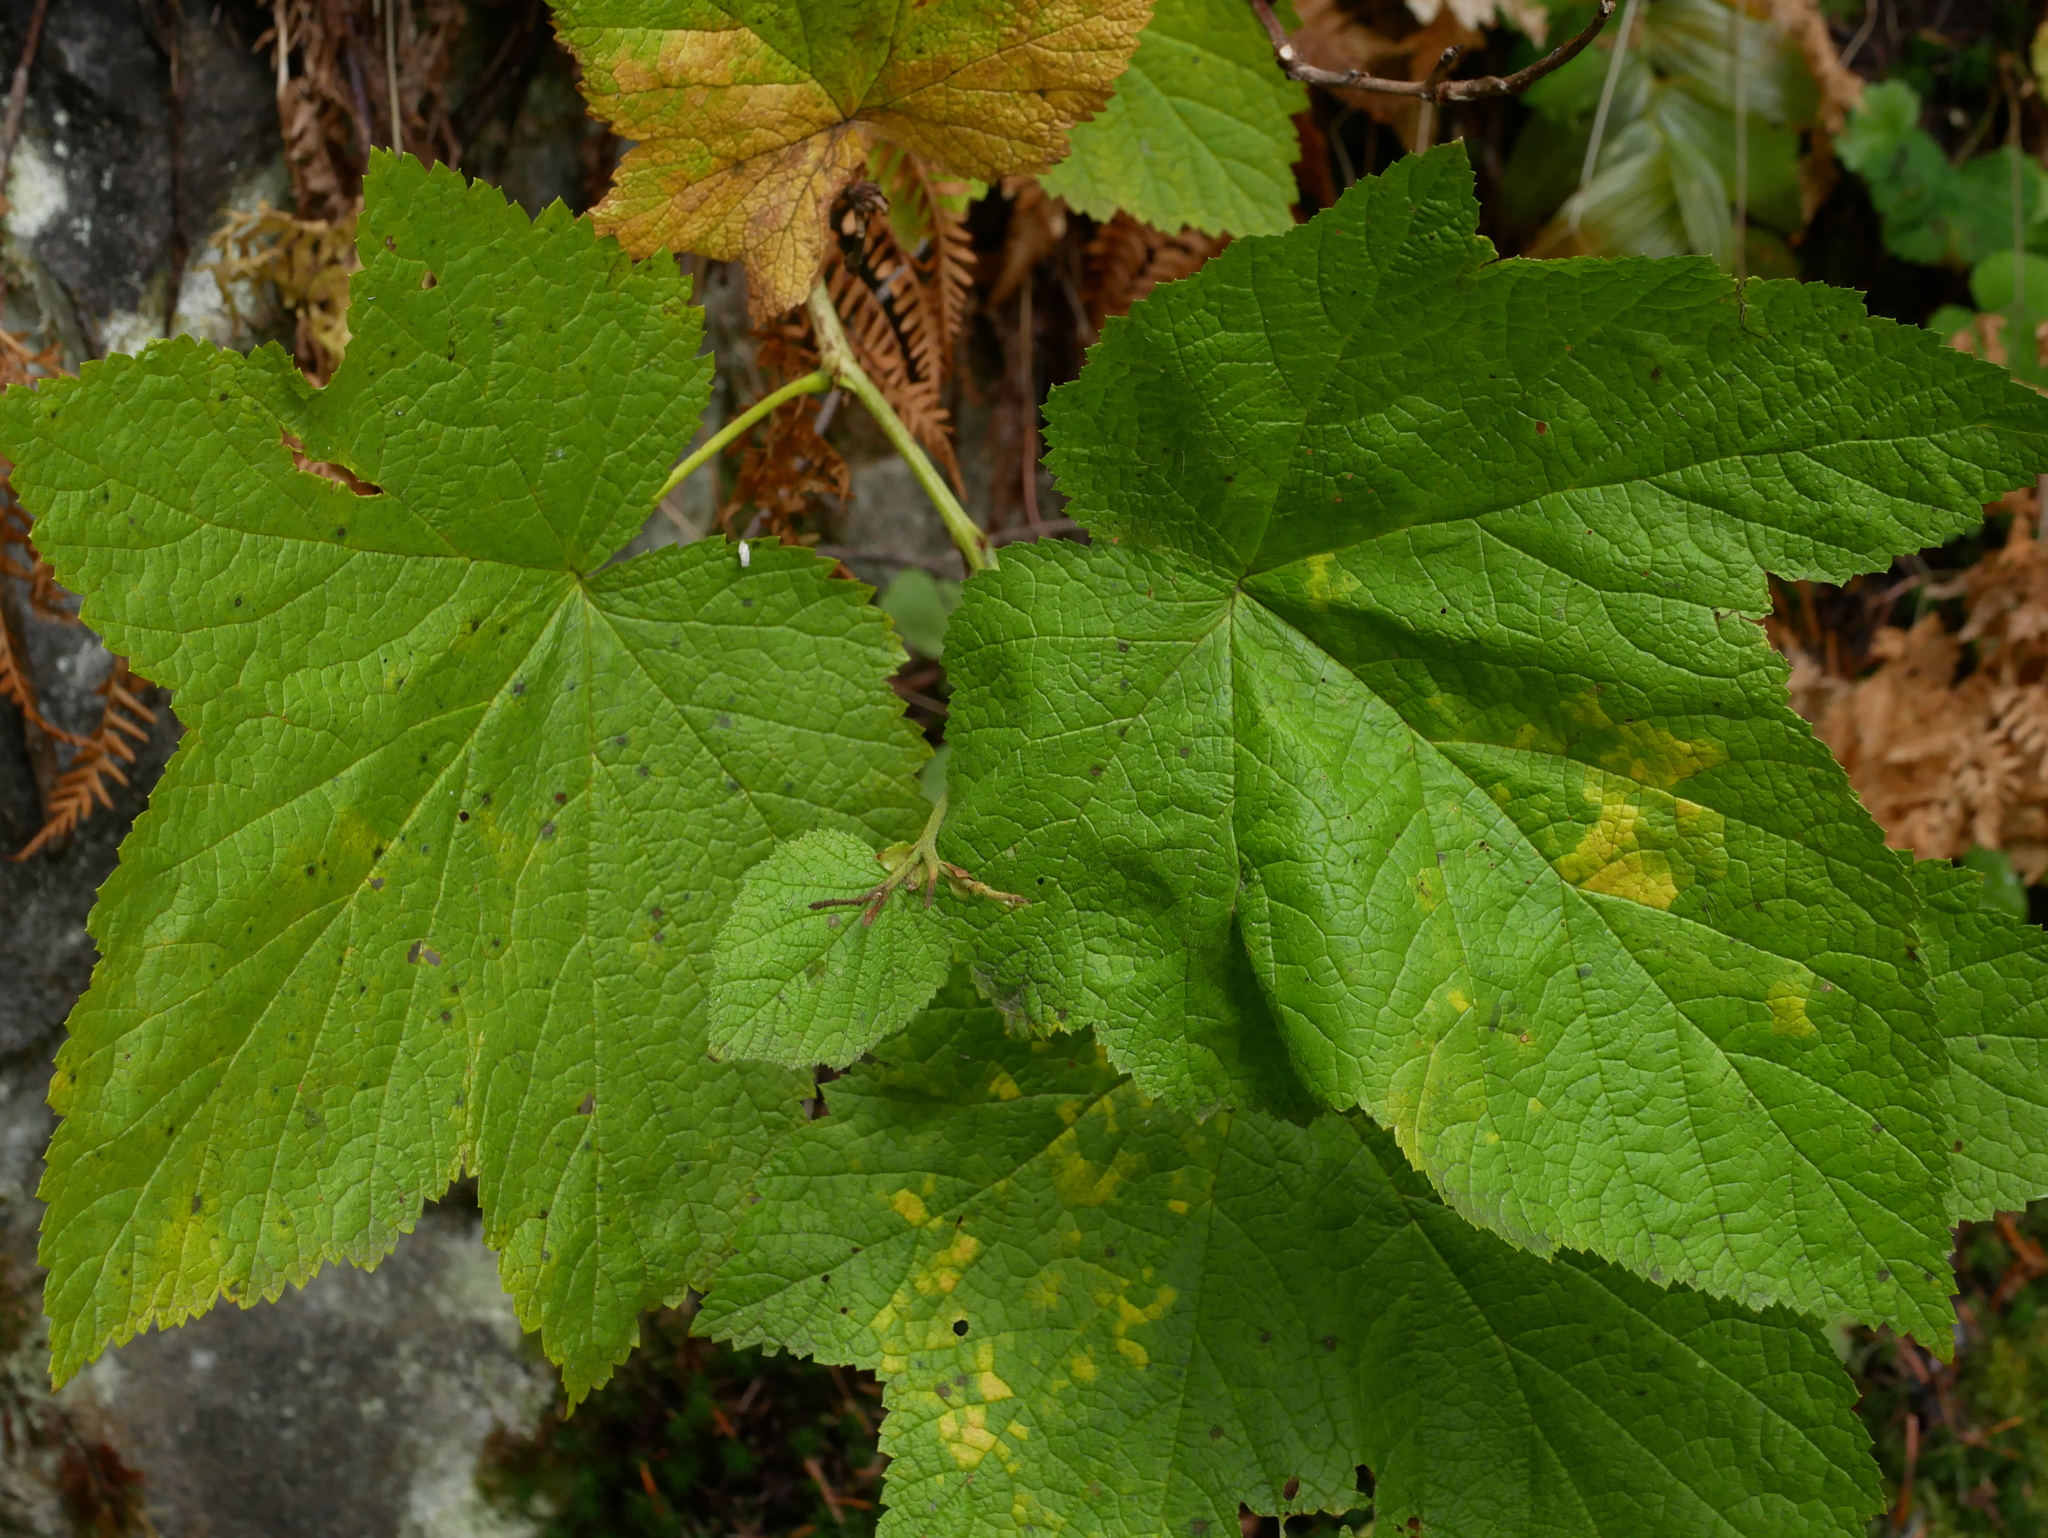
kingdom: Plantae
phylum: Tracheophyta
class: Magnoliopsida
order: Rosales
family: Rosaceae
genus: Rubus
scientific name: Rubus parviflorus
